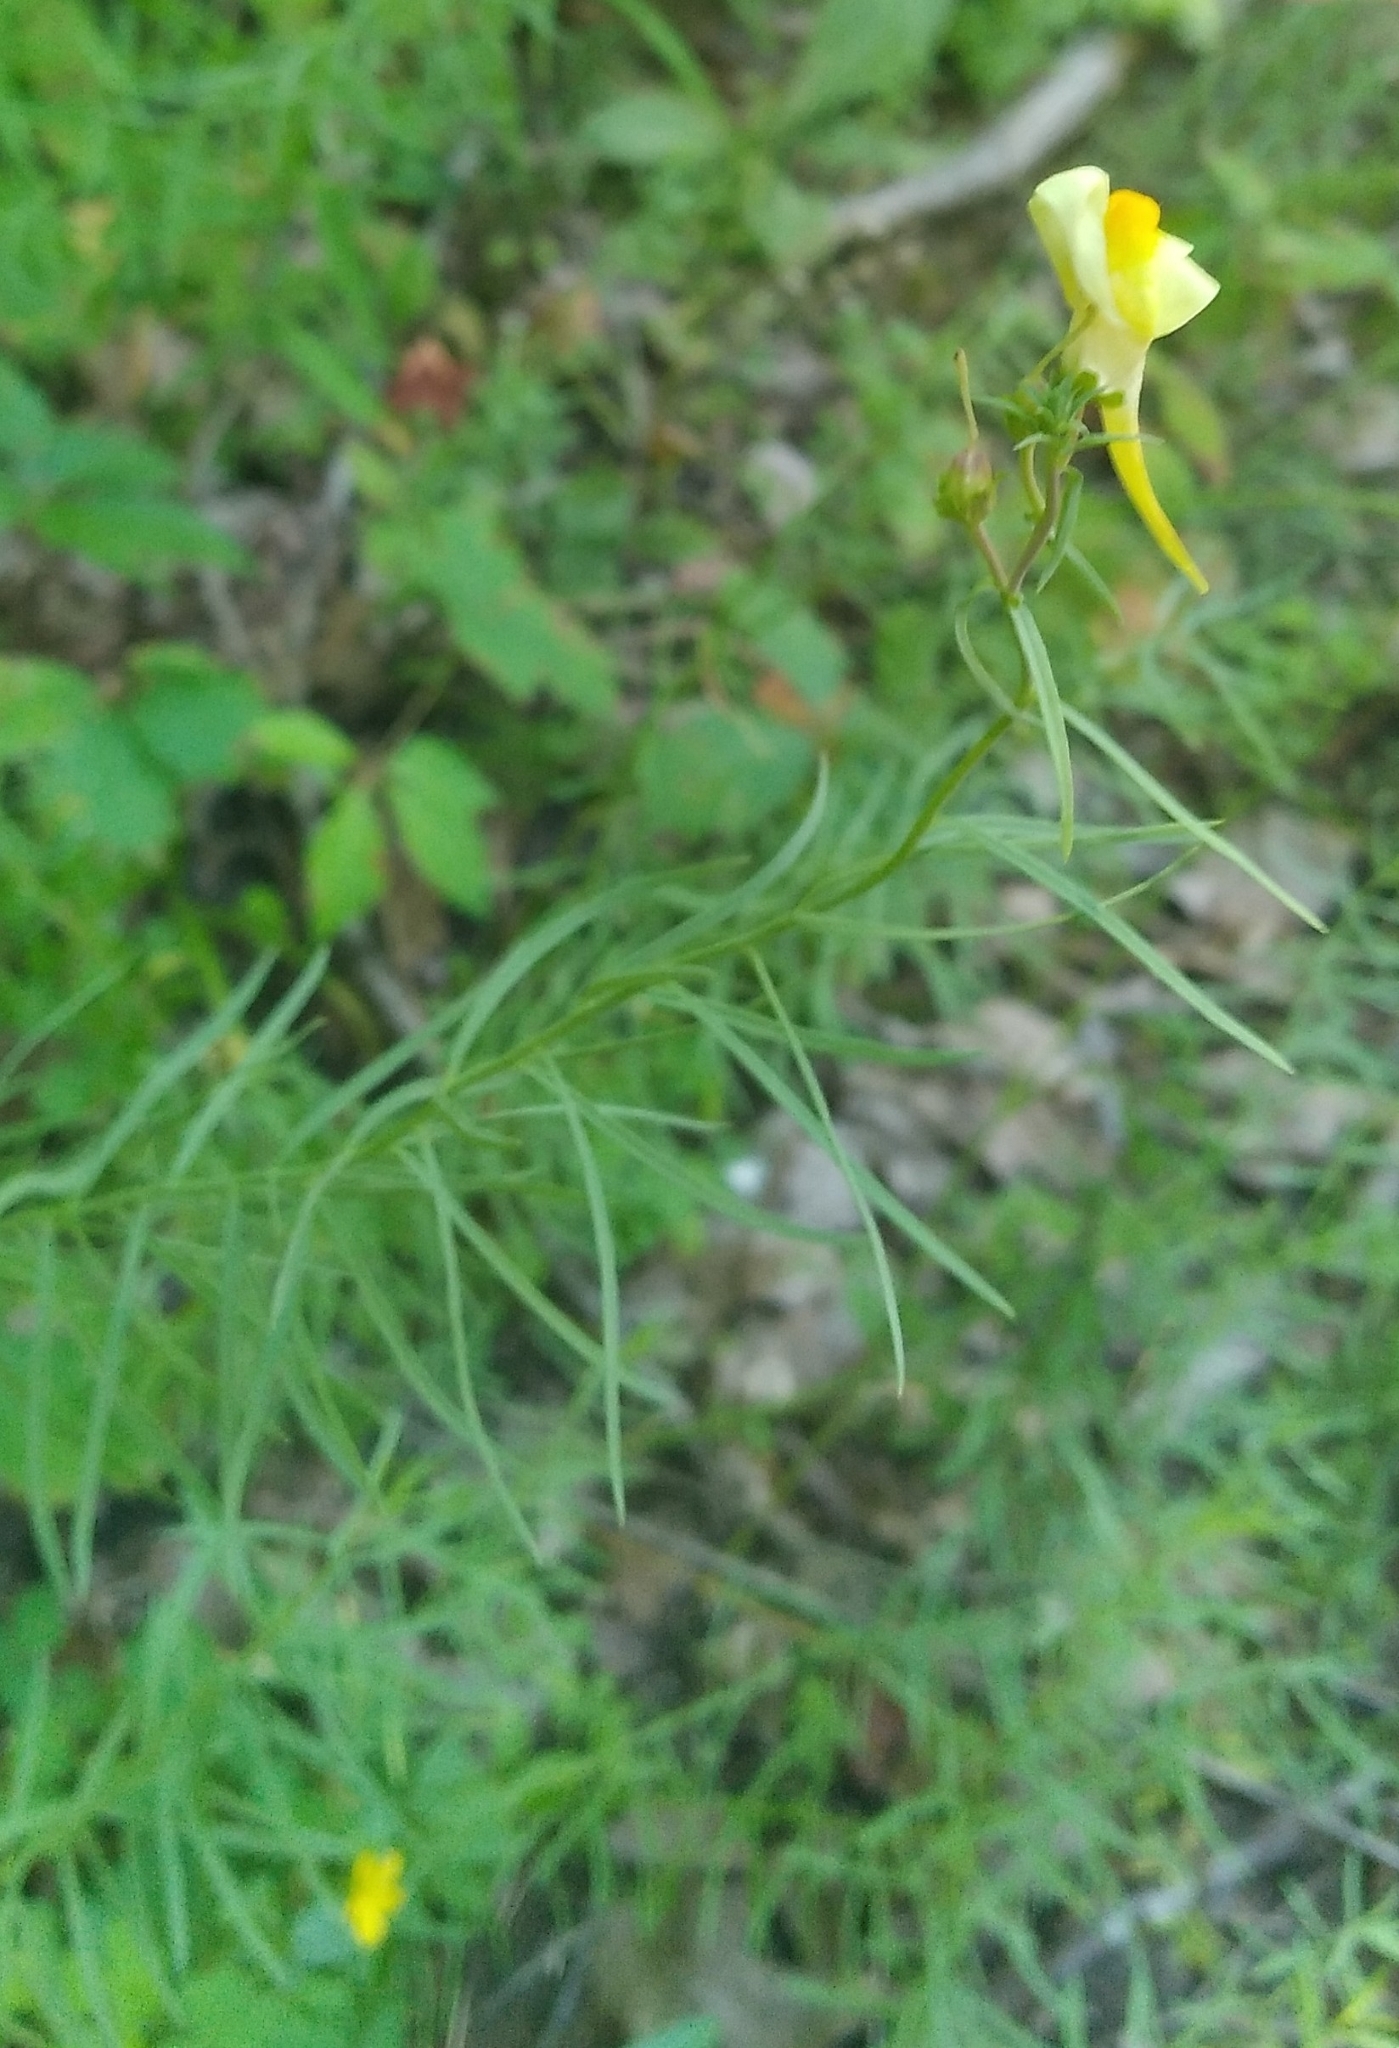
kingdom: Plantae
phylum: Tracheophyta
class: Magnoliopsida
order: Lamiales
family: Plantaginaceae
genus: Linaria
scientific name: Linaria vulgaris
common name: Butter and eggs
